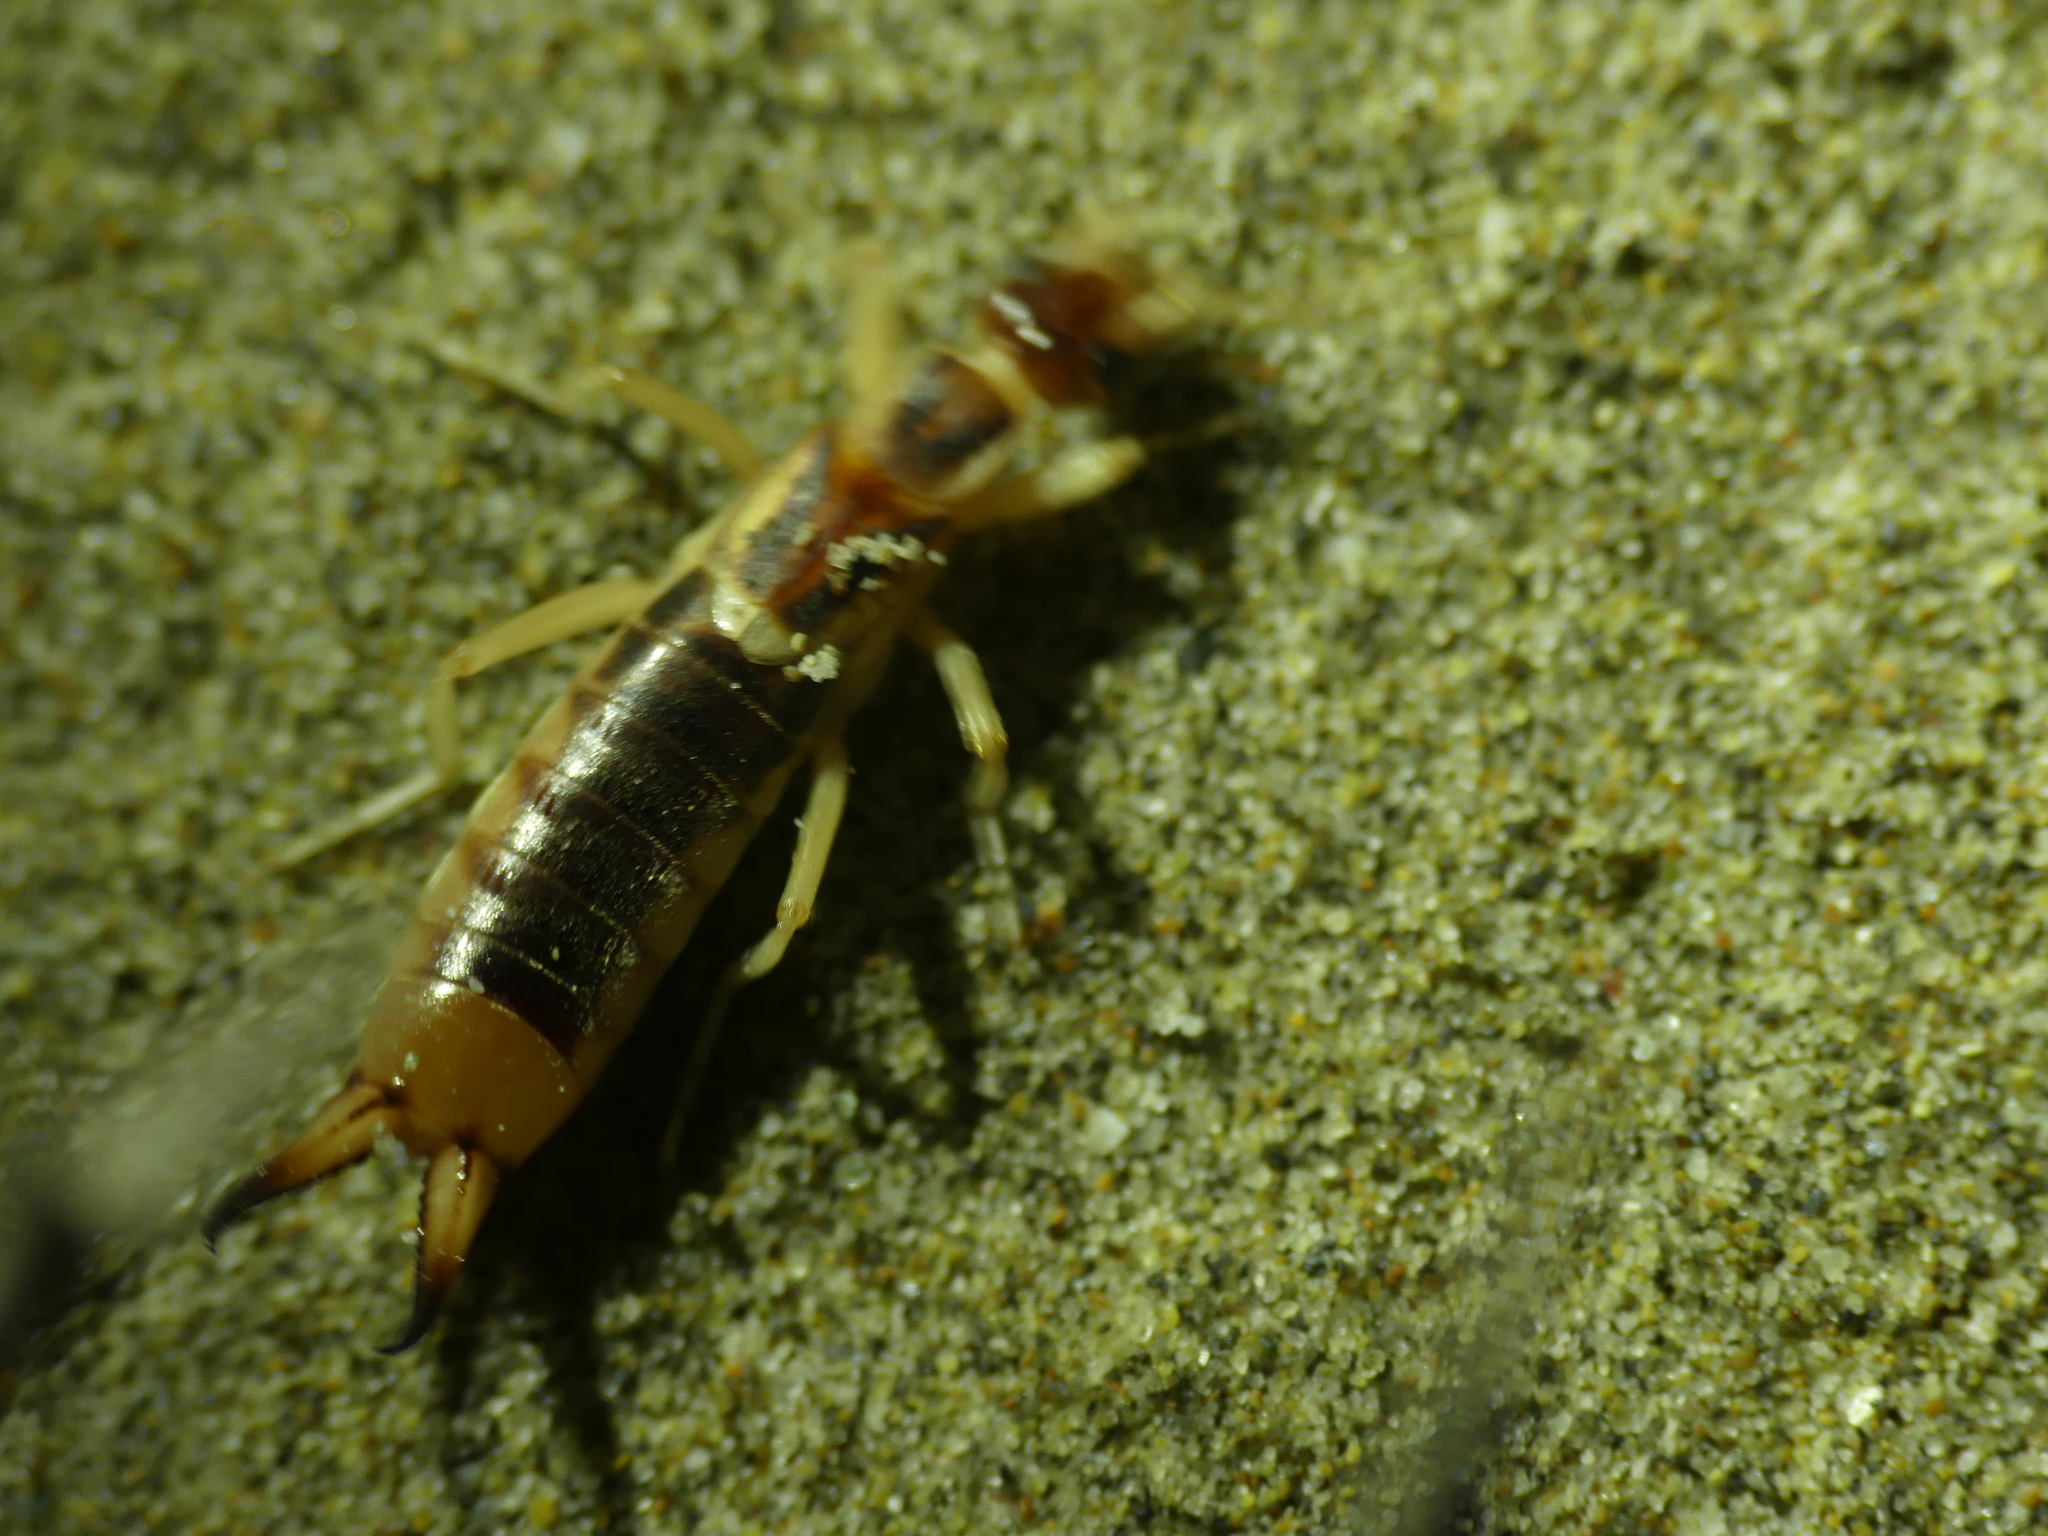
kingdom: Animalia
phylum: Arthropoda
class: Insecta
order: Dermaptera
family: Labiduridae
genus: Labidura
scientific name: Labidura riparia
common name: Striped earwig
